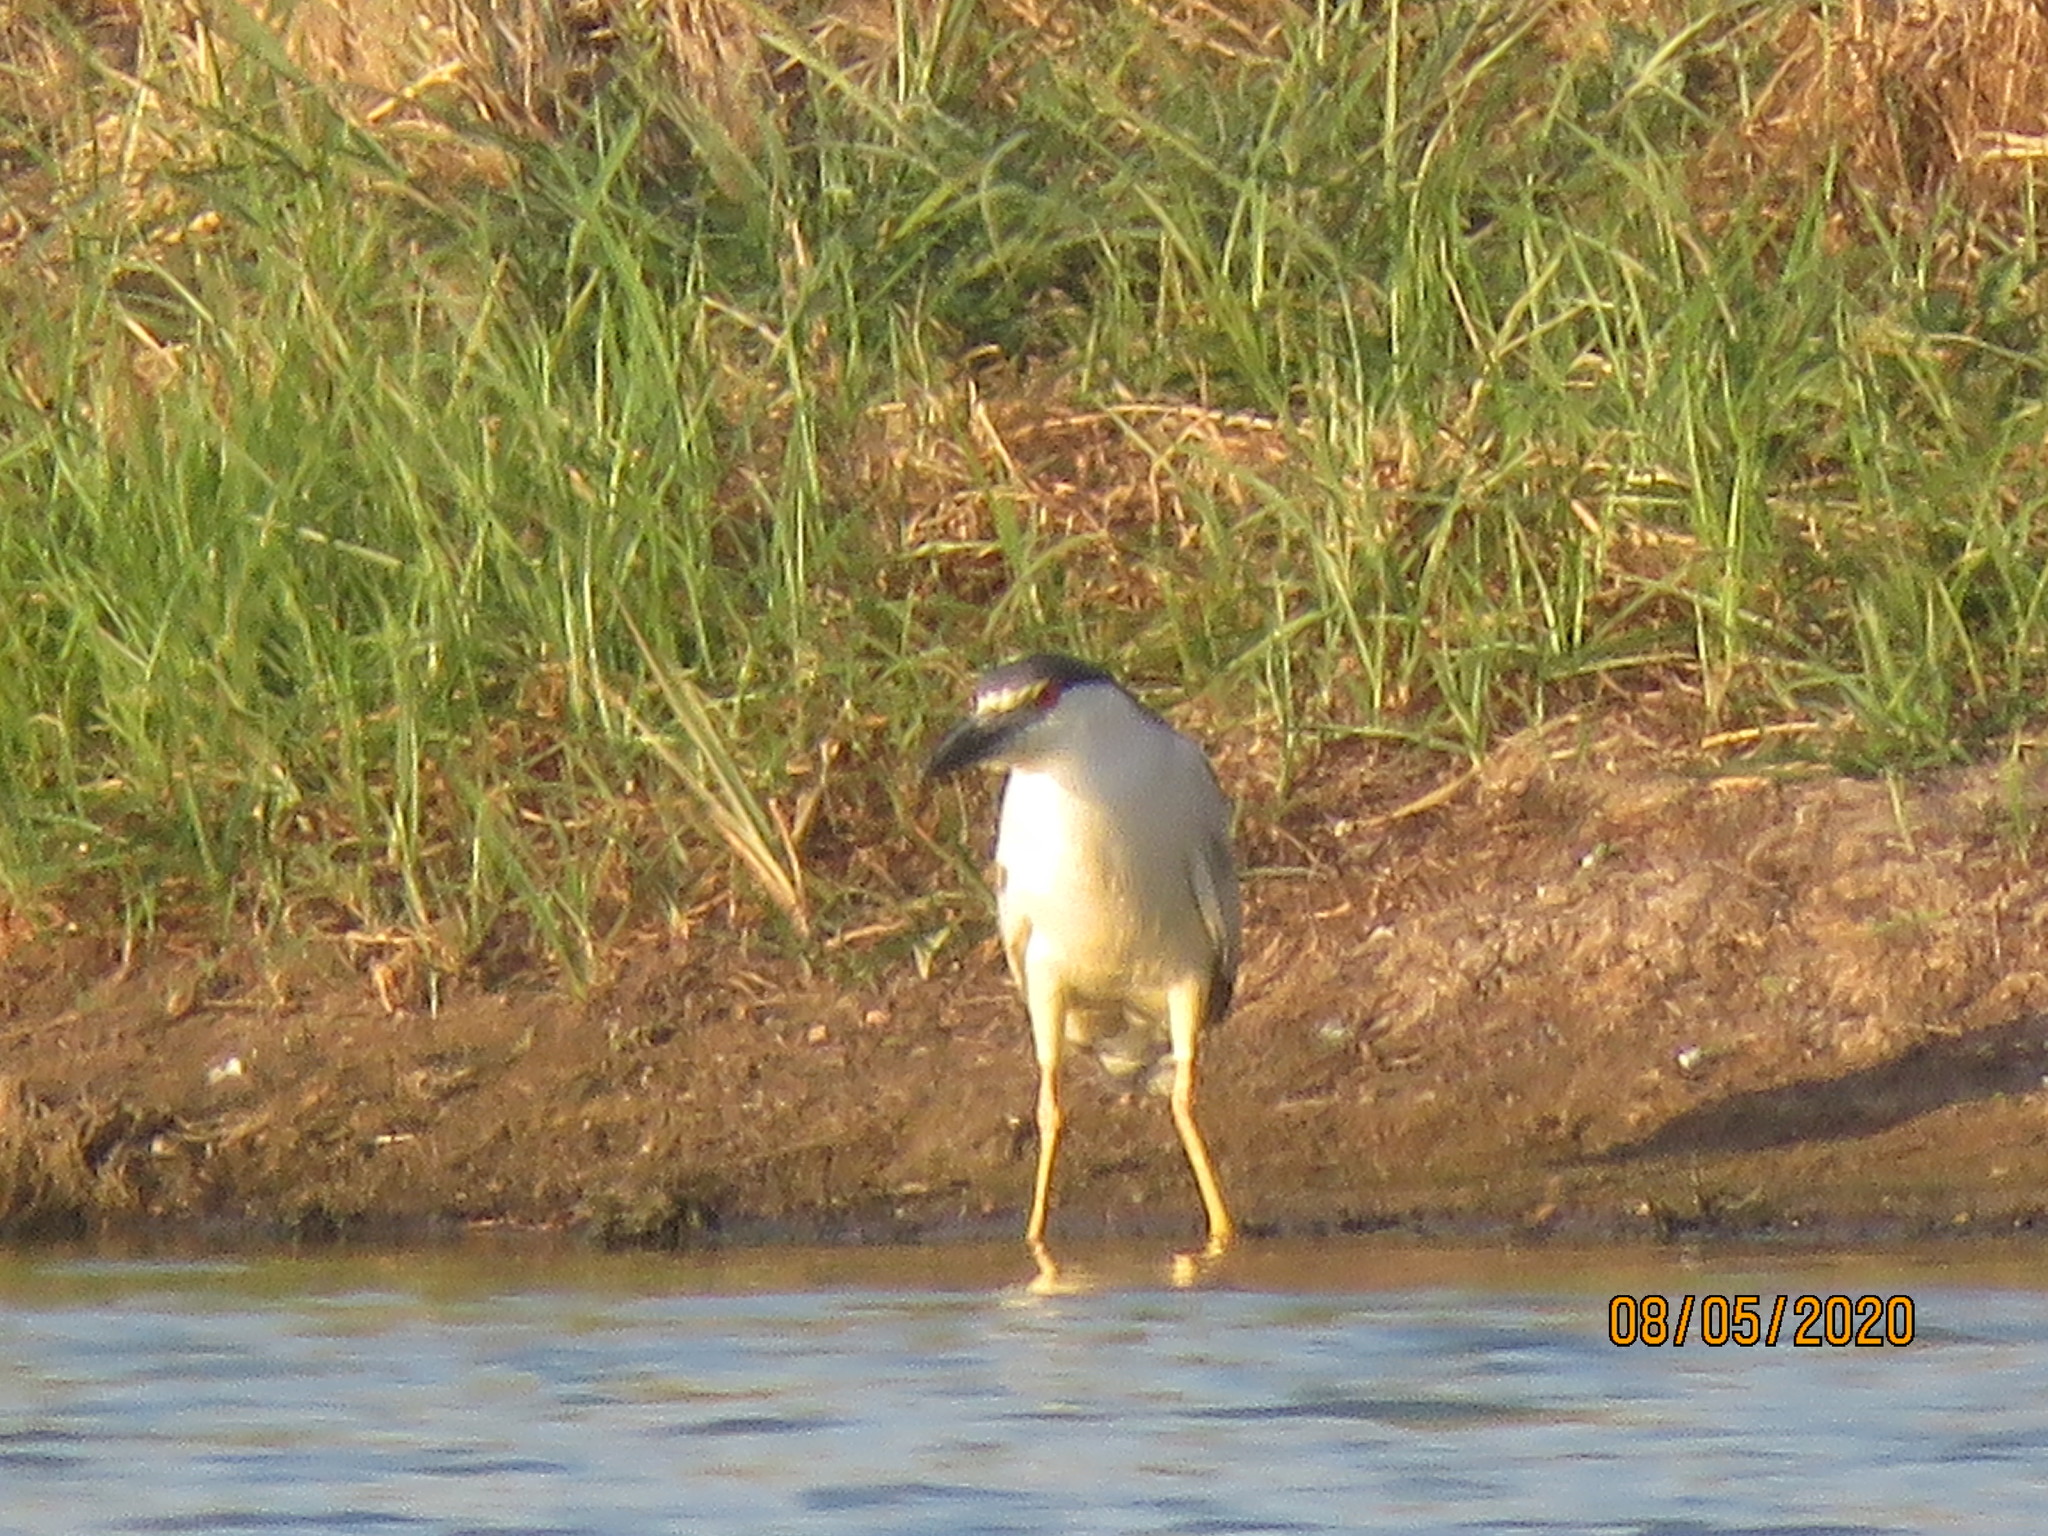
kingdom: Animalia
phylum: Chordata
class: Aves
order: Pelecaniformes
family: Ardeidae
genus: Nycticorax
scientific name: Nycticorax nycticorax
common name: Black-crowned night heron
